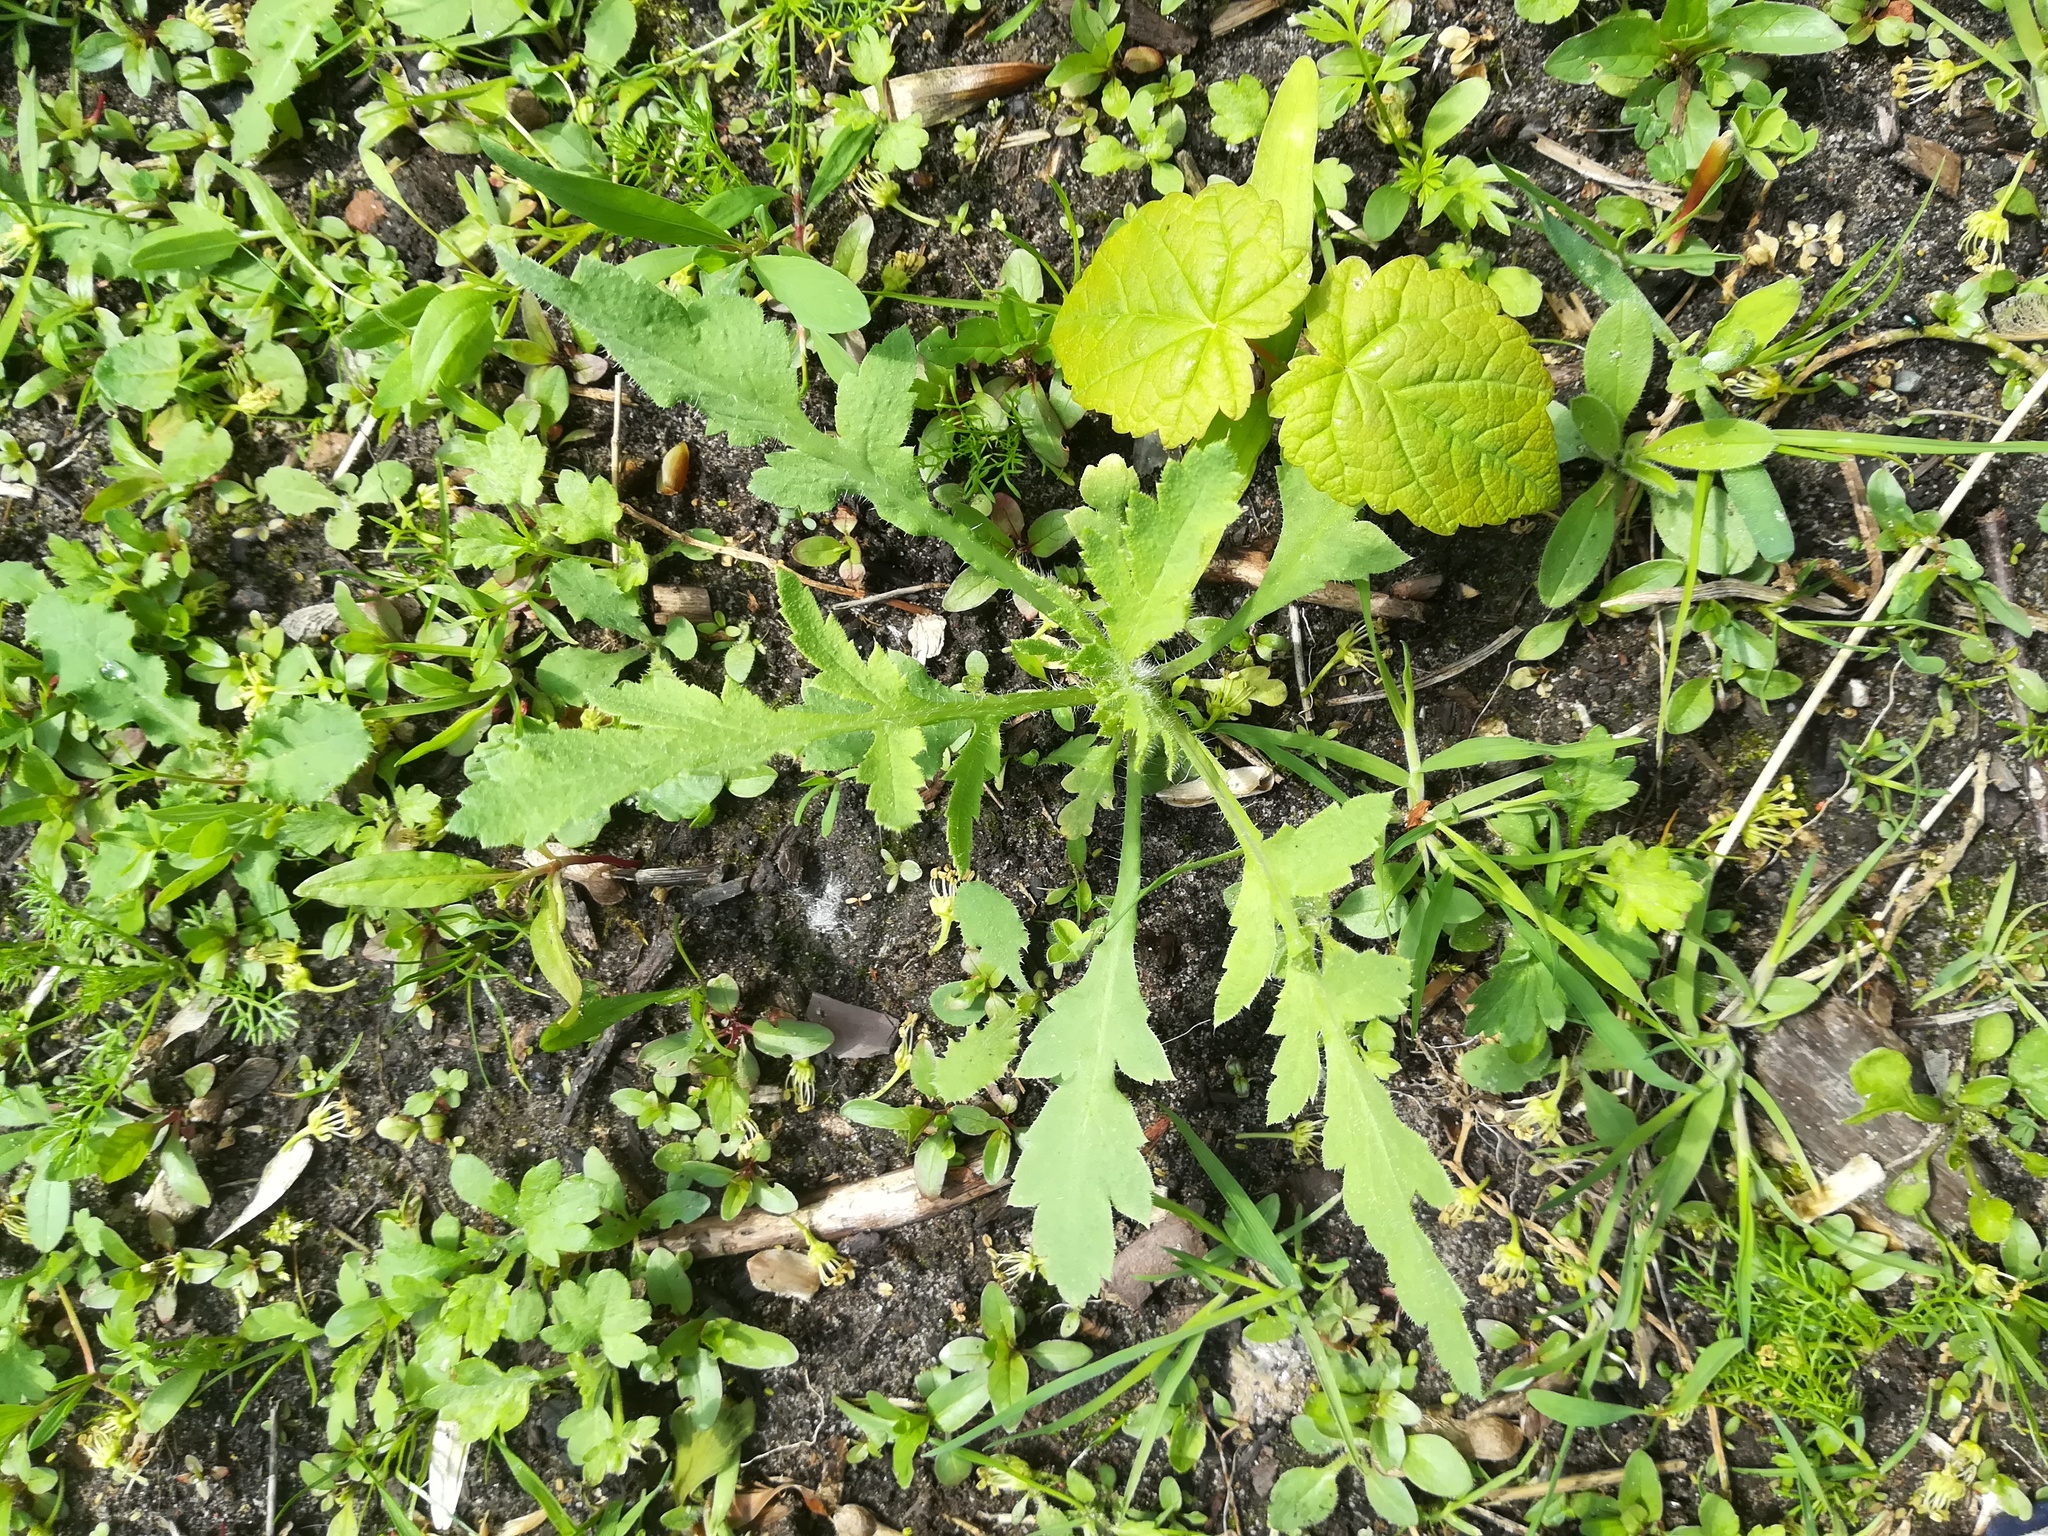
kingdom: Plantae
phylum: Tracheophyta
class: Magnoliopsida
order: Ranunculales
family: Papaveraceae
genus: Papaver
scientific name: Papaver cambricum
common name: Poppy
